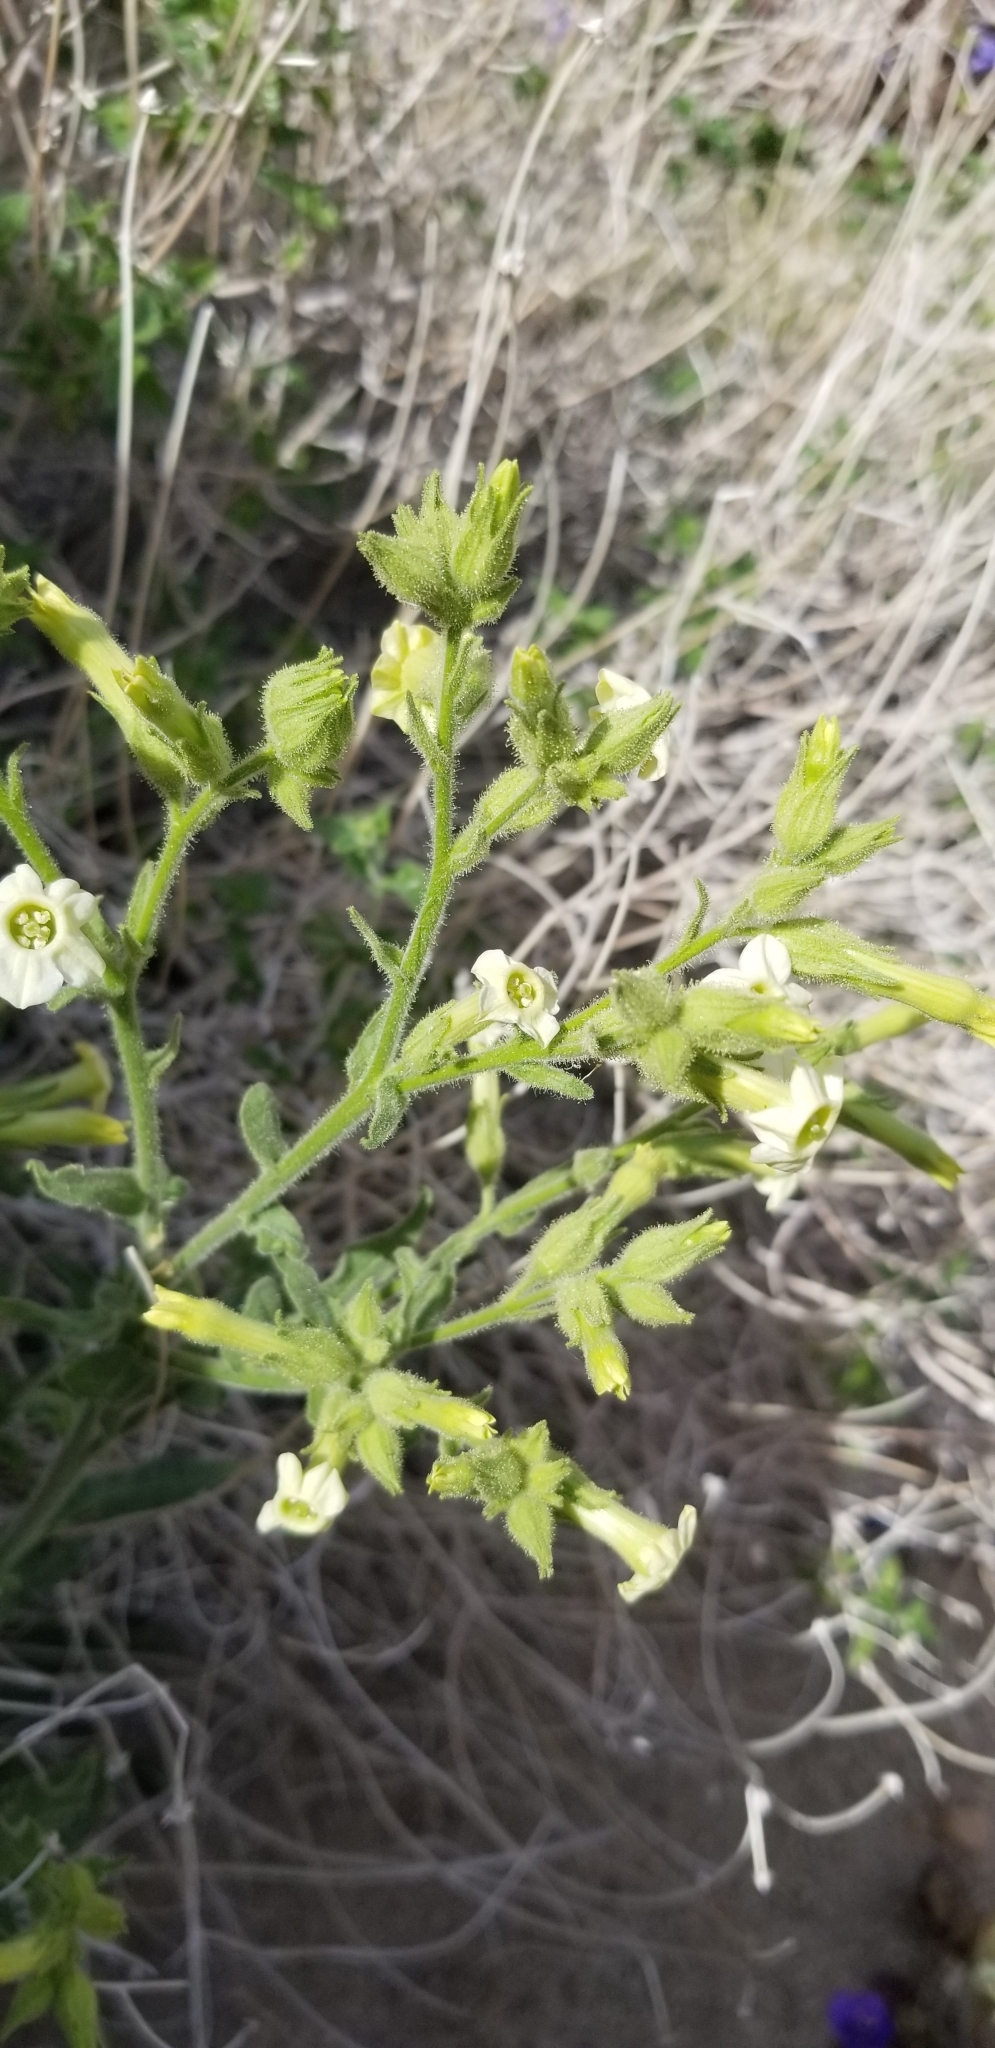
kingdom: Plantae
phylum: Tracheophyta
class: Magnoliopsida
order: Solanales
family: Solanaceae
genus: Nicotiana
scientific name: Nicotiana obtusifolia
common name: Desert tobacco
